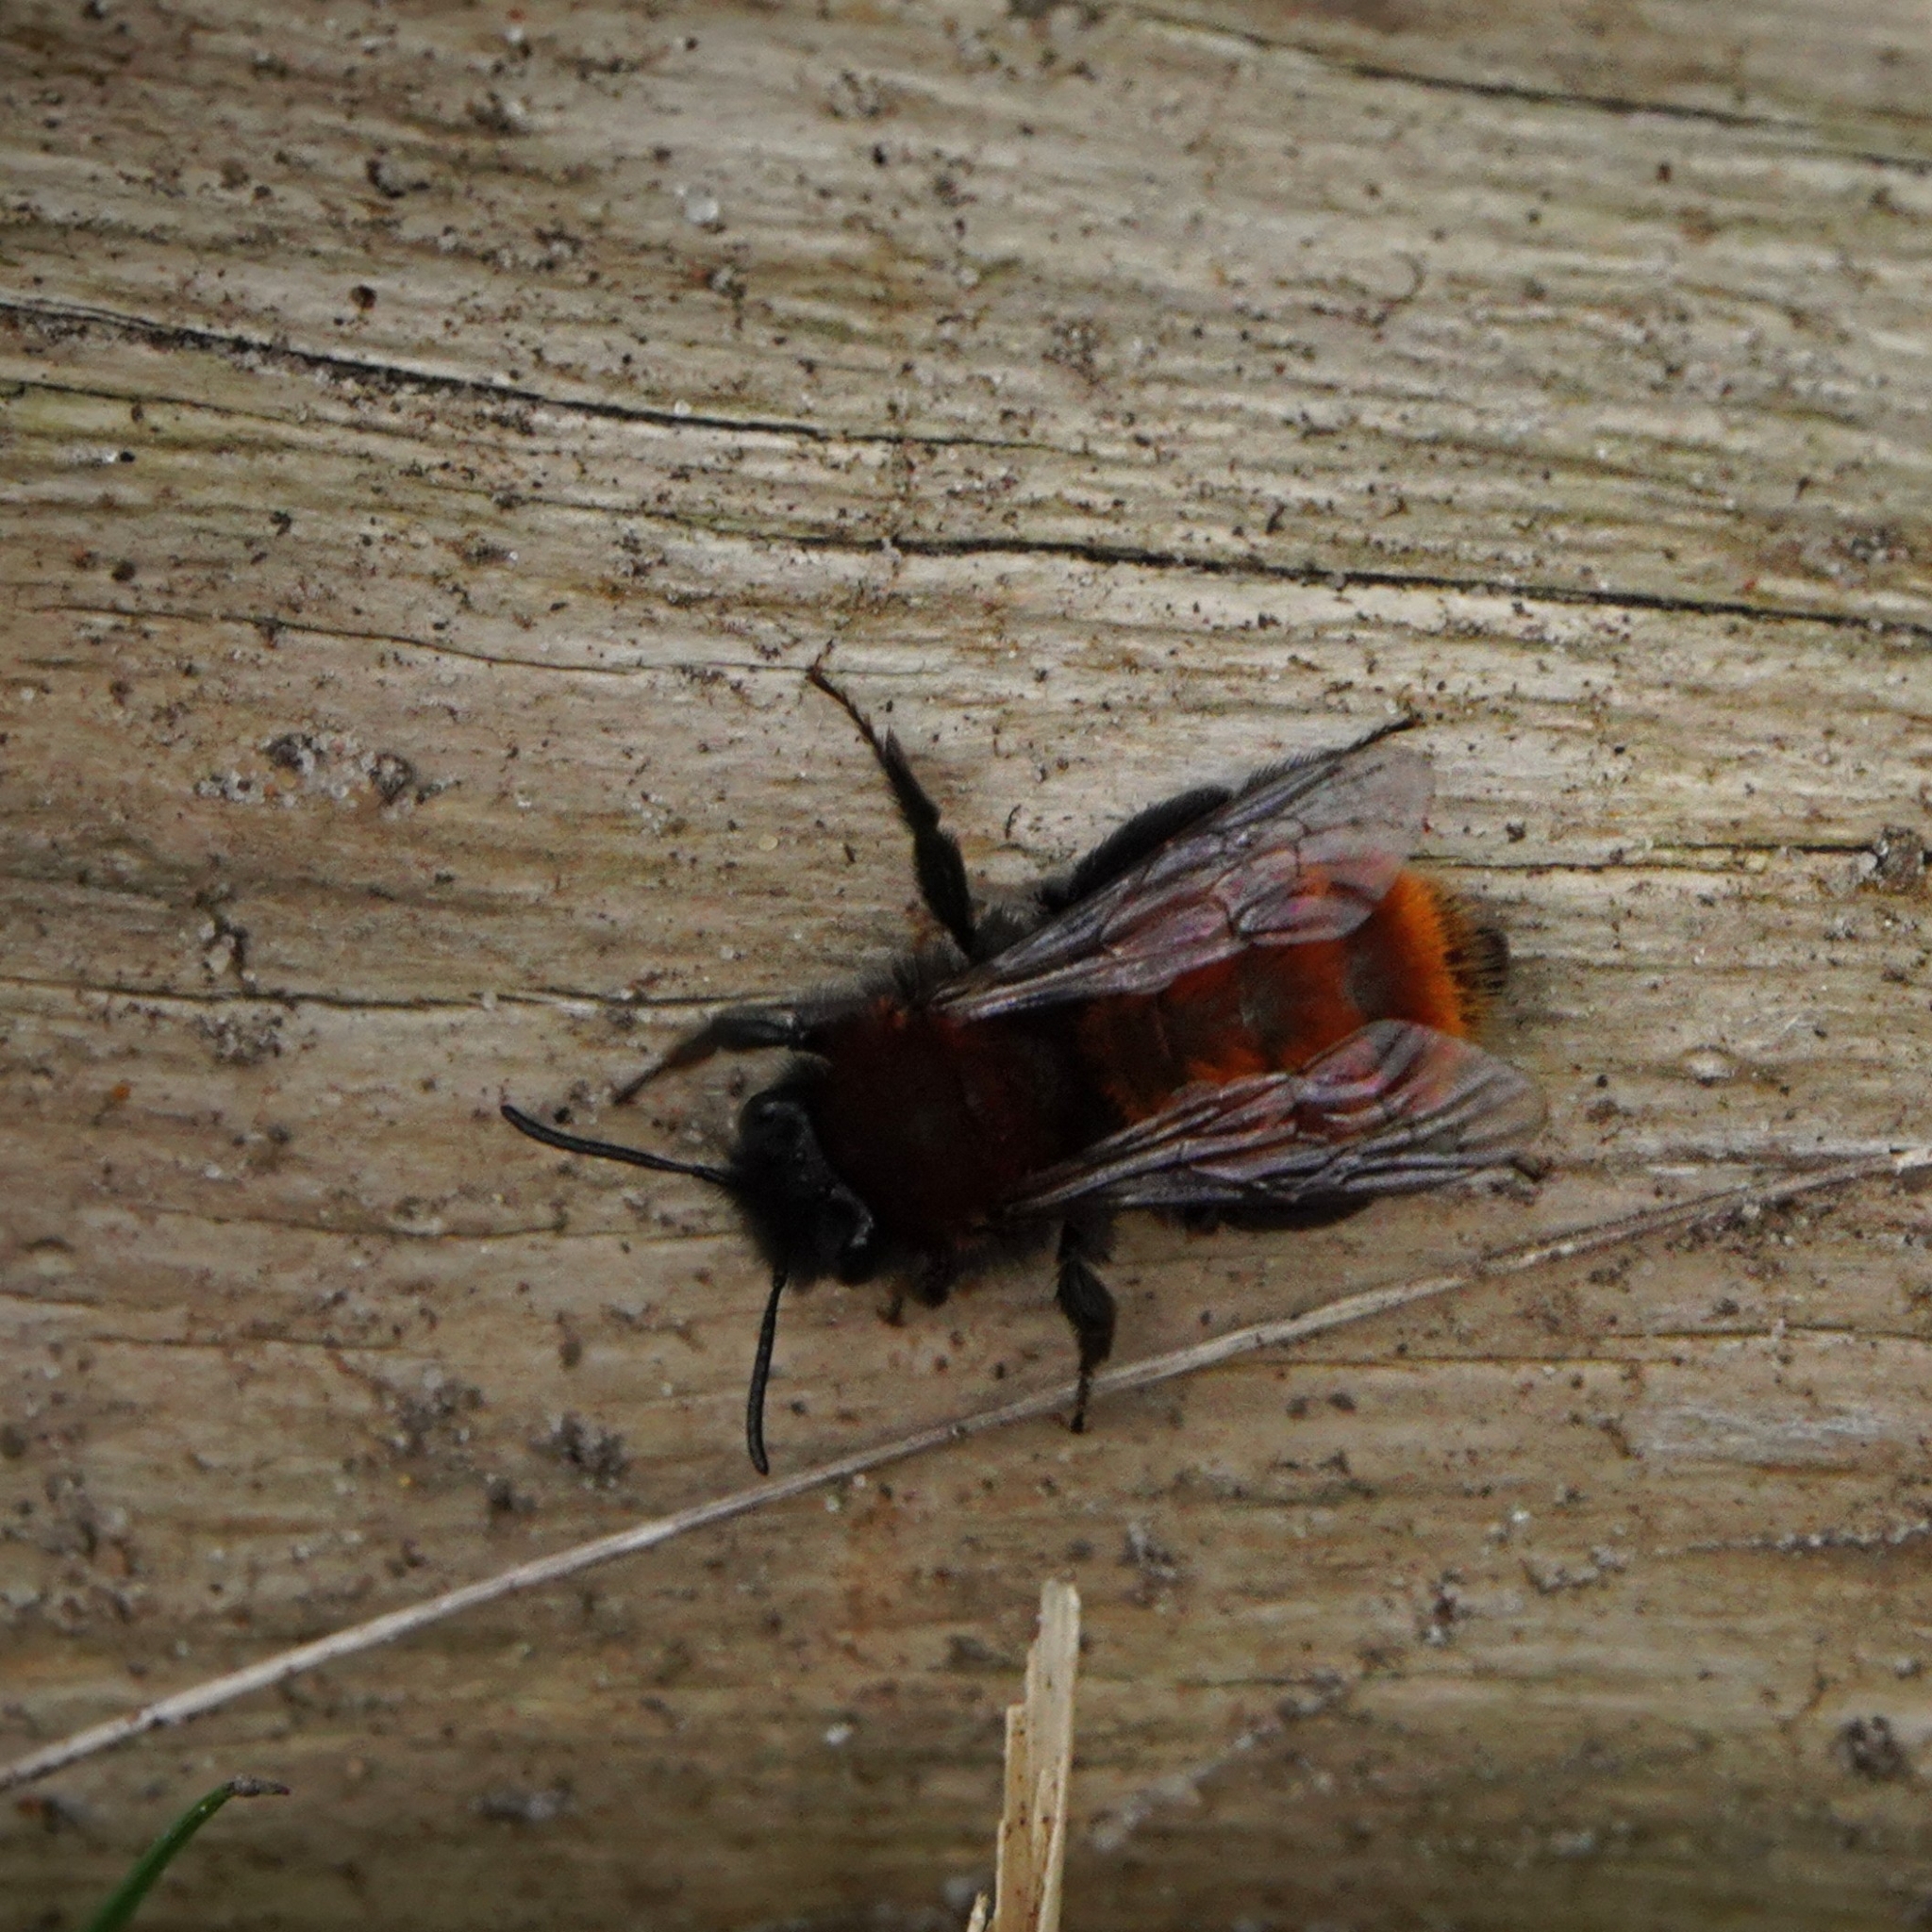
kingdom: Animalia
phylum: Arthropoda
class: Insecta
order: Hymenoptera
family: Andrenidae
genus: Andrena
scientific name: Andrena fulva
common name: Tawny mining bee
